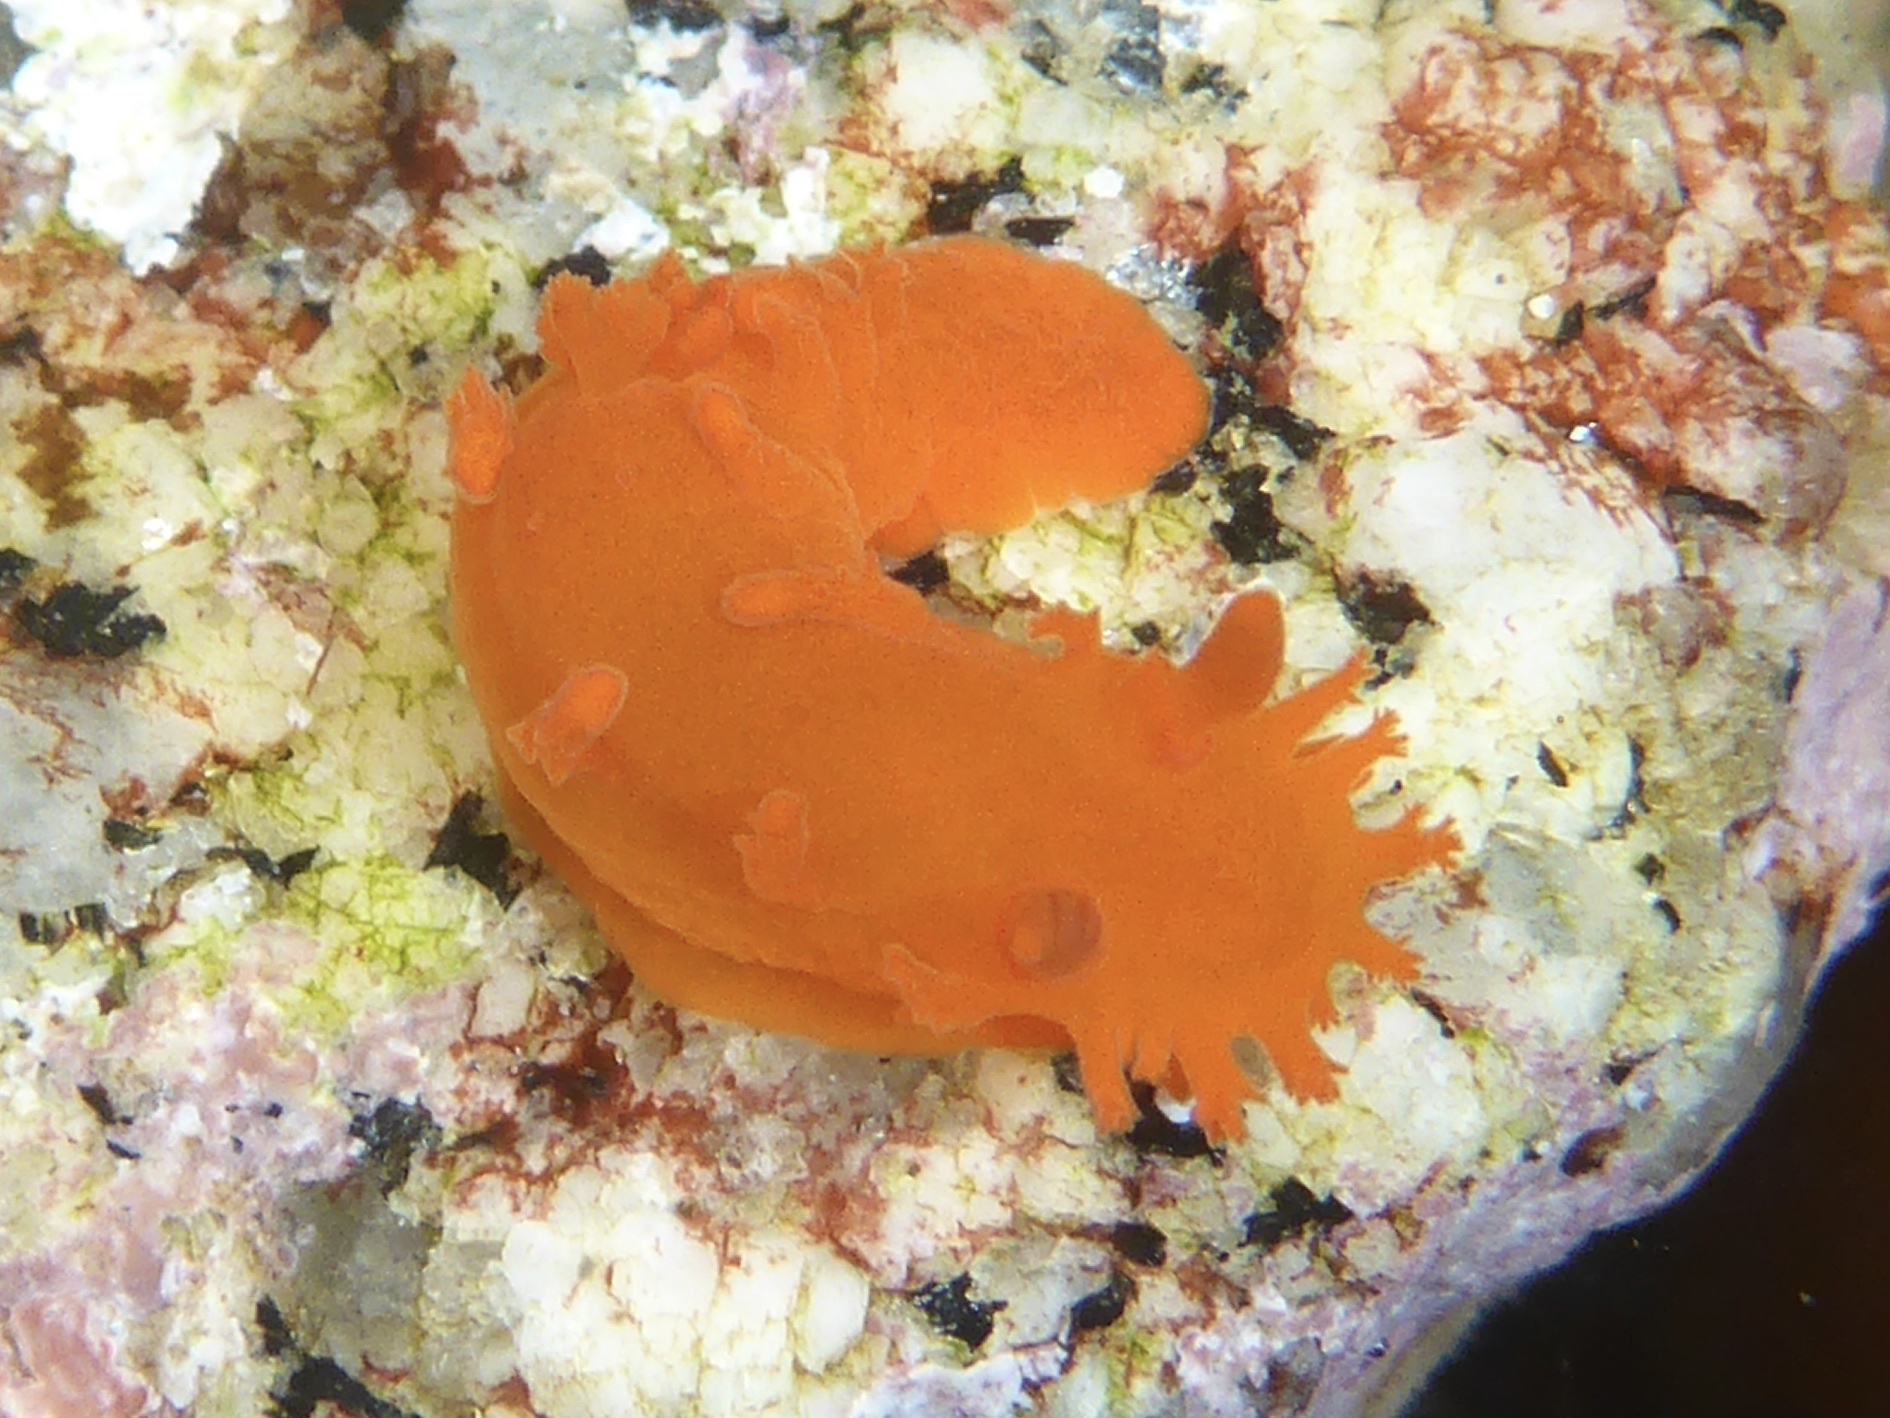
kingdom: Animalia
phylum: Mollusca
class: Gastropoda
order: Nudibranchia
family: Polyceridae
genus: Triopha
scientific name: Triopha maculata
